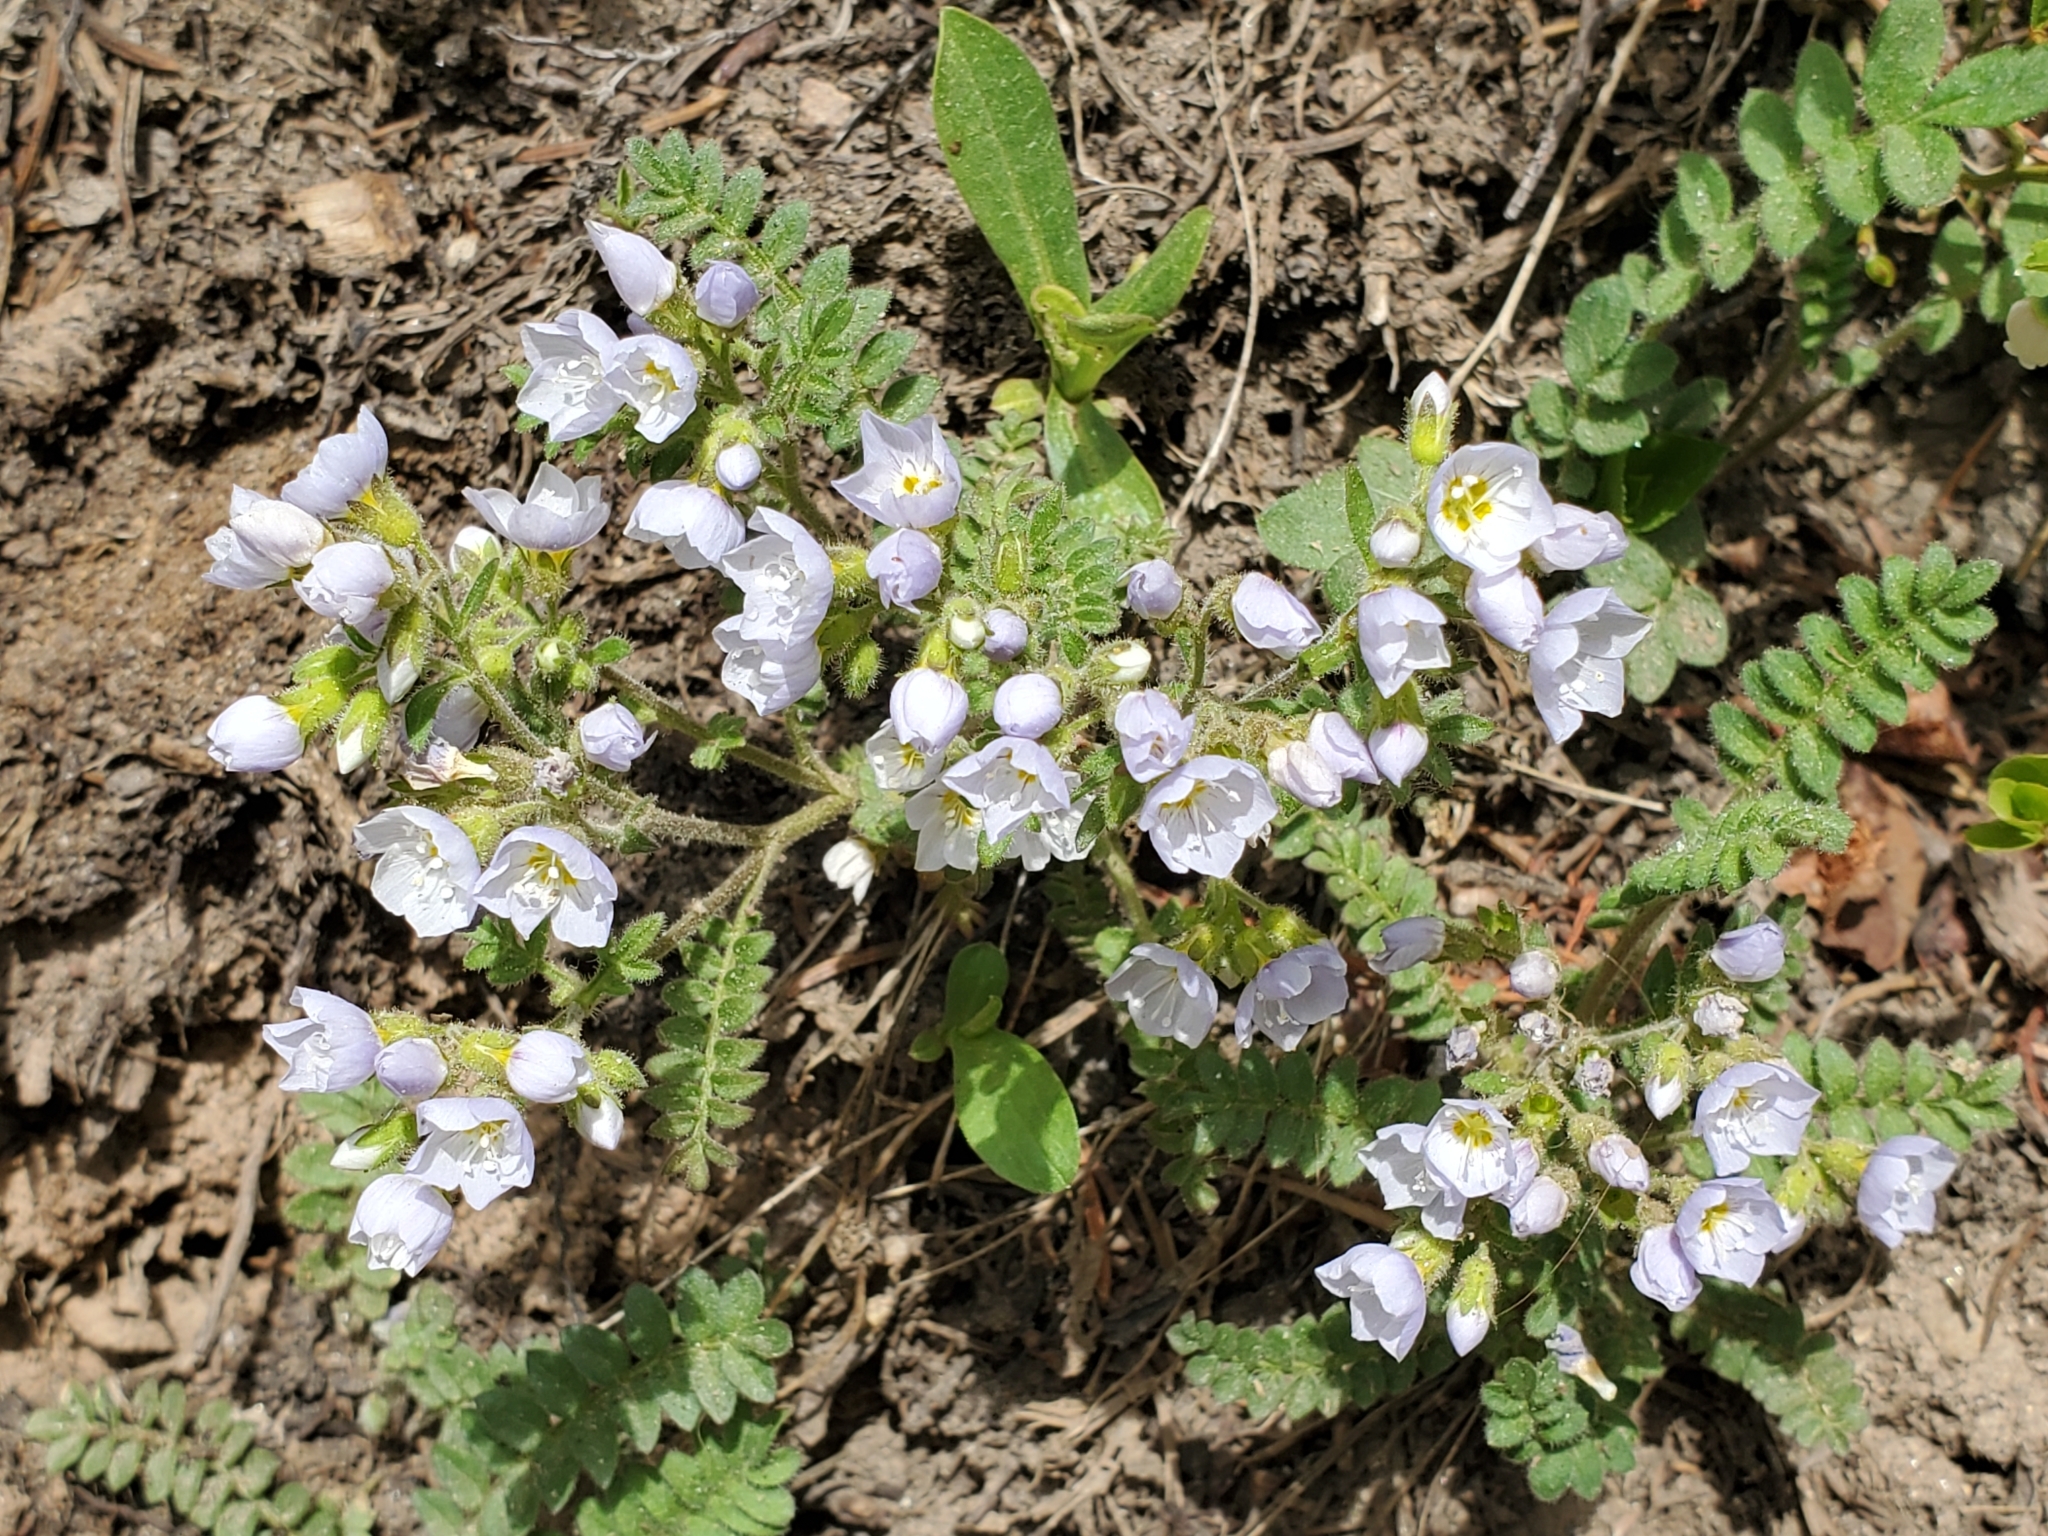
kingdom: Plantae
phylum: Tracheophyta
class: Magnoliopsida
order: Ericales
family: Polemoniaceae
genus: Polemonium
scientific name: Polemonium pulcherrimum
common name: Short jacob's-ladder
